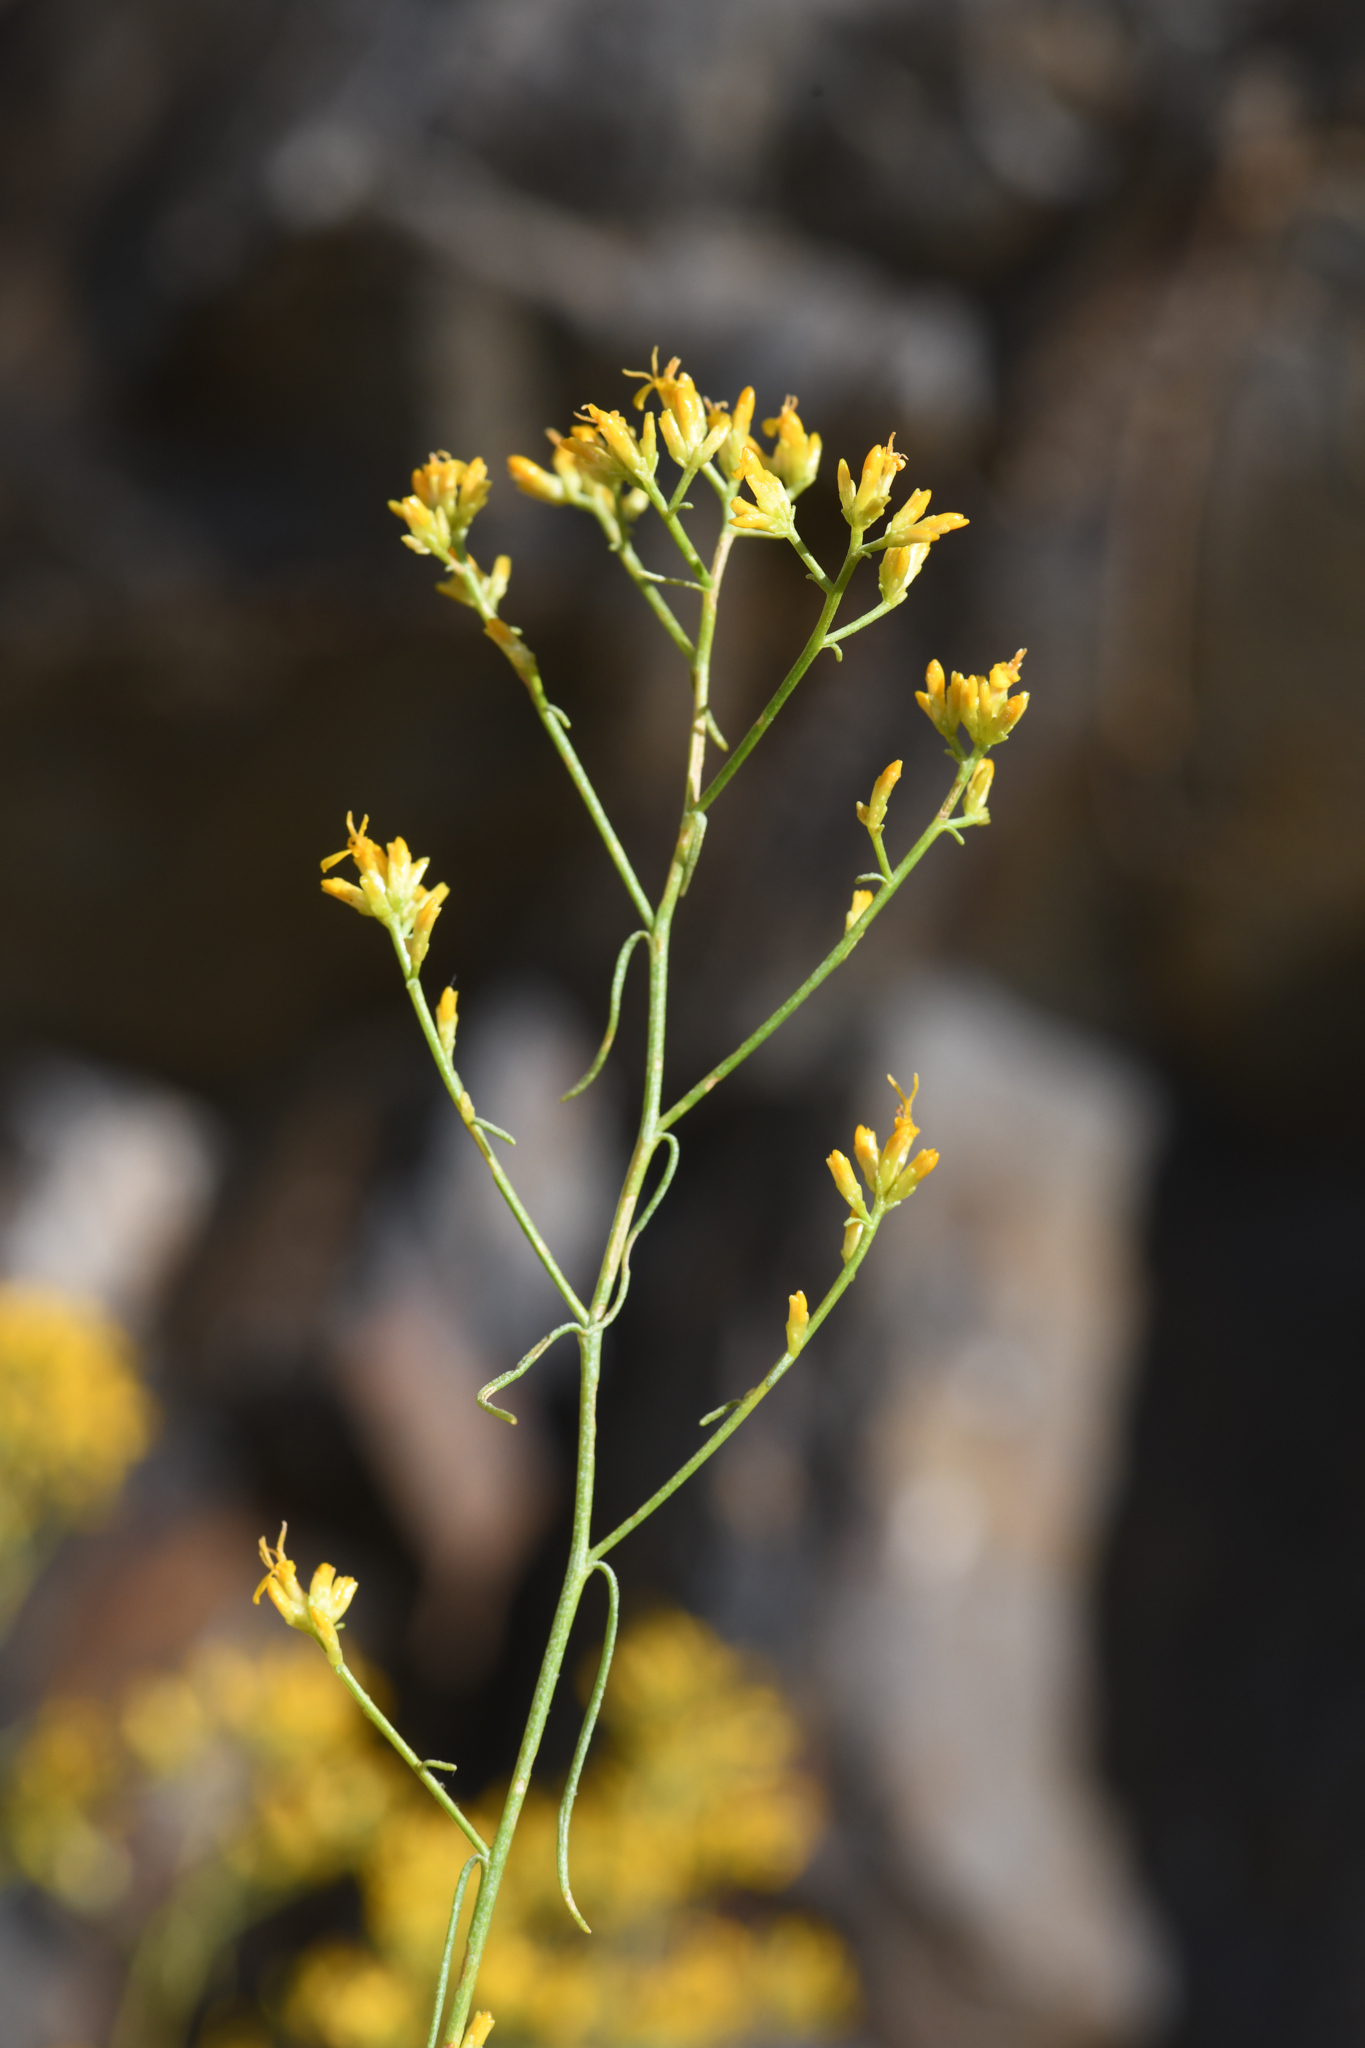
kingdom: Plantae
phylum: Tracheophyta
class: Magnoliopsida
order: Asterales
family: Asteraceae
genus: Gutierrezia
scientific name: Gutierrezia microcephala
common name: Thread snakeweed
